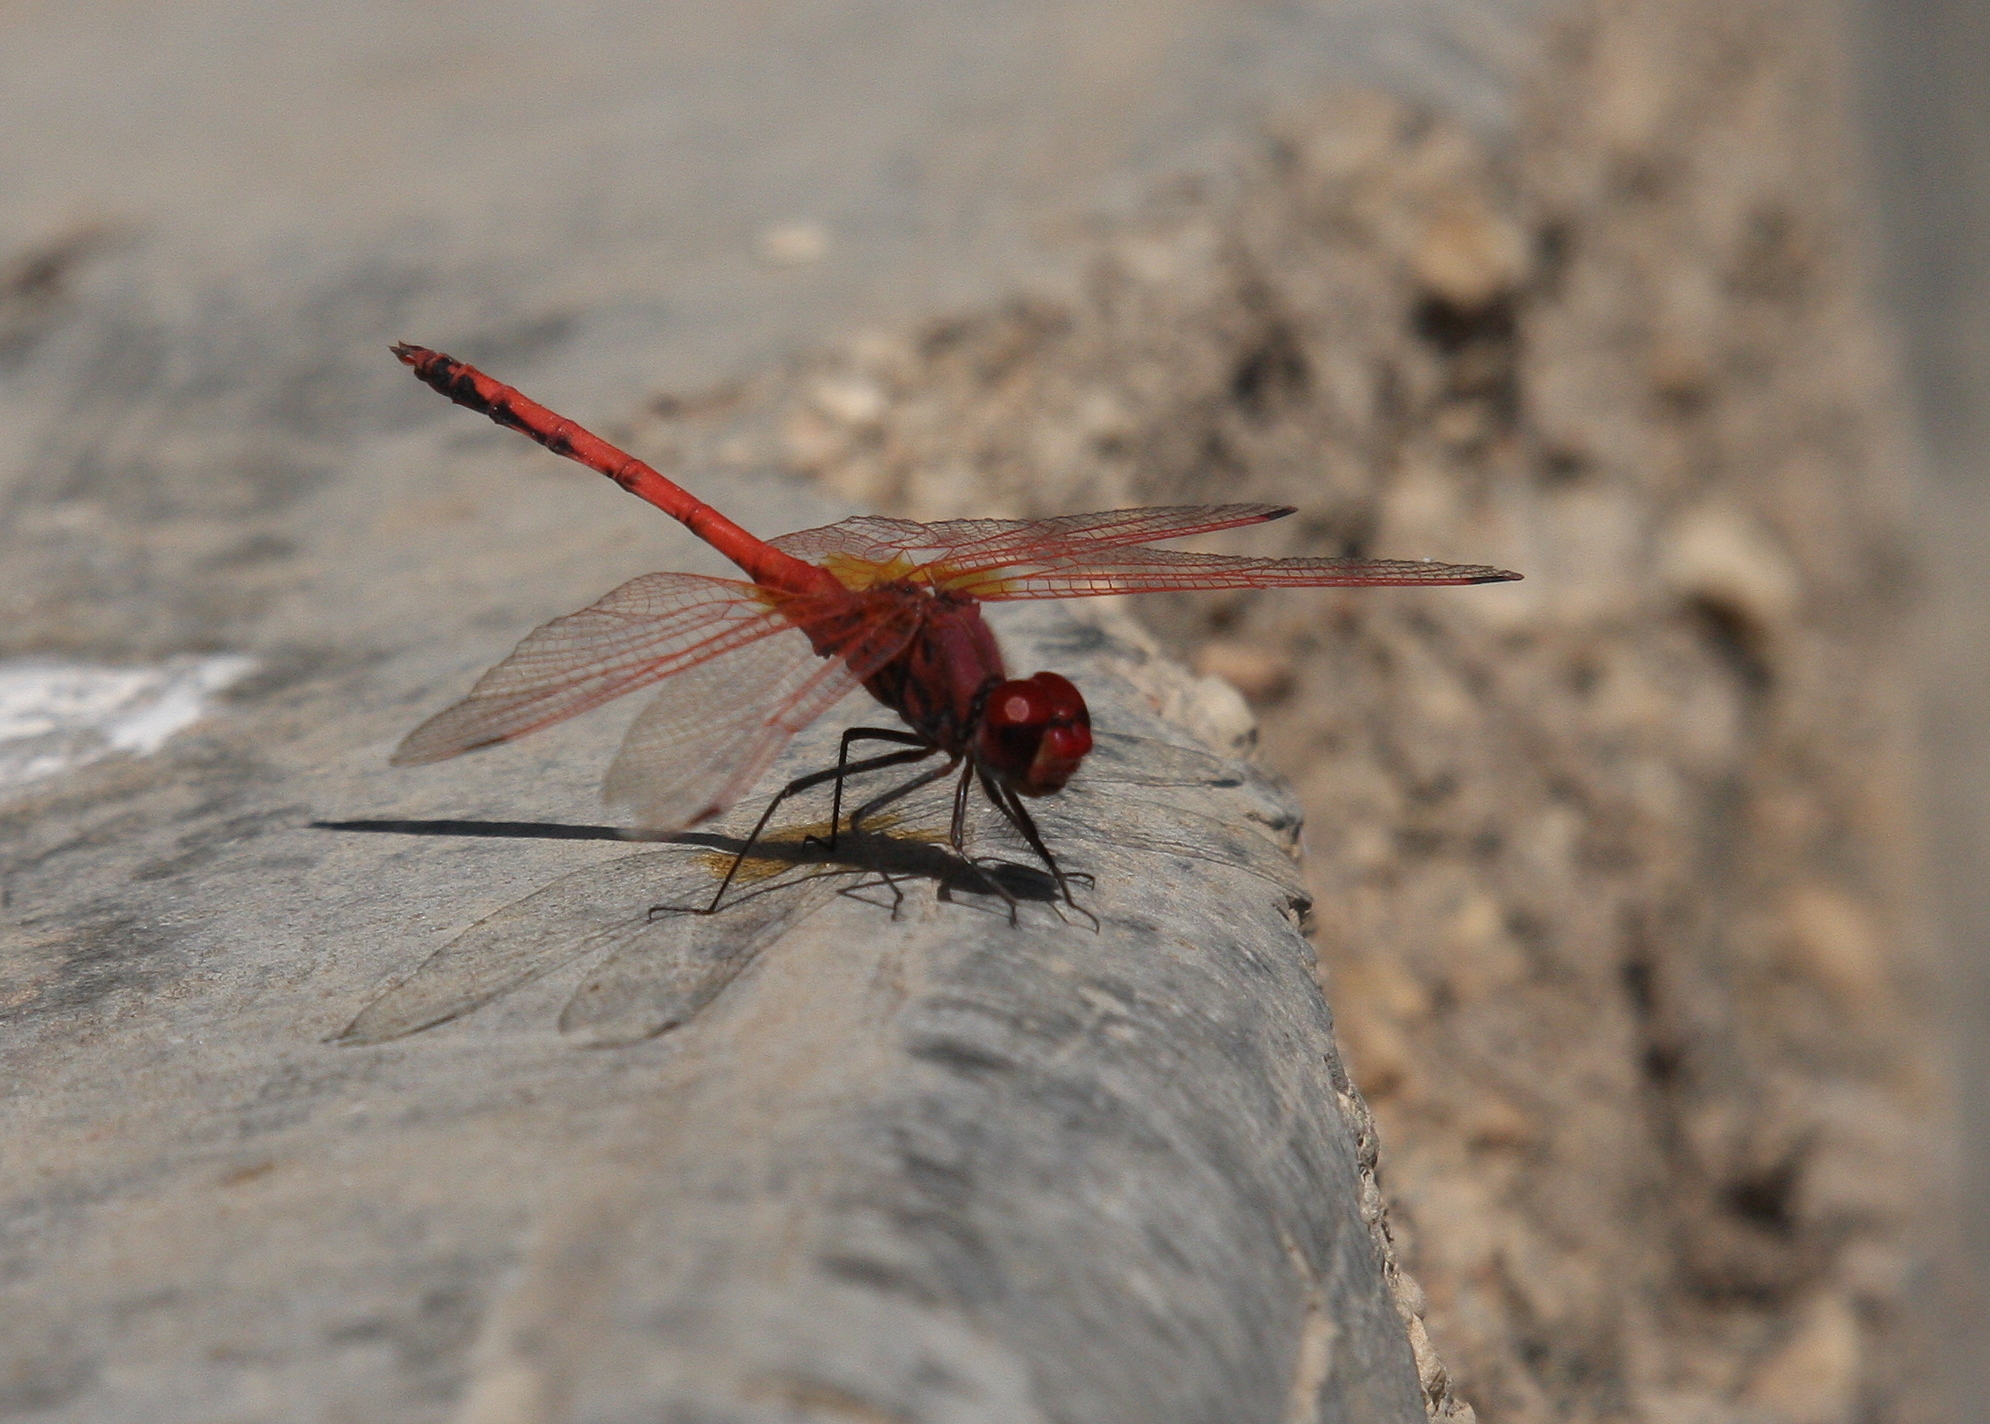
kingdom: Animalia
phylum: Arthropoda
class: Insecta
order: Odonata
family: Libellulidae
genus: Trithemis
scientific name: Trithemis arteriosa
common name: Red-veined dropwing
